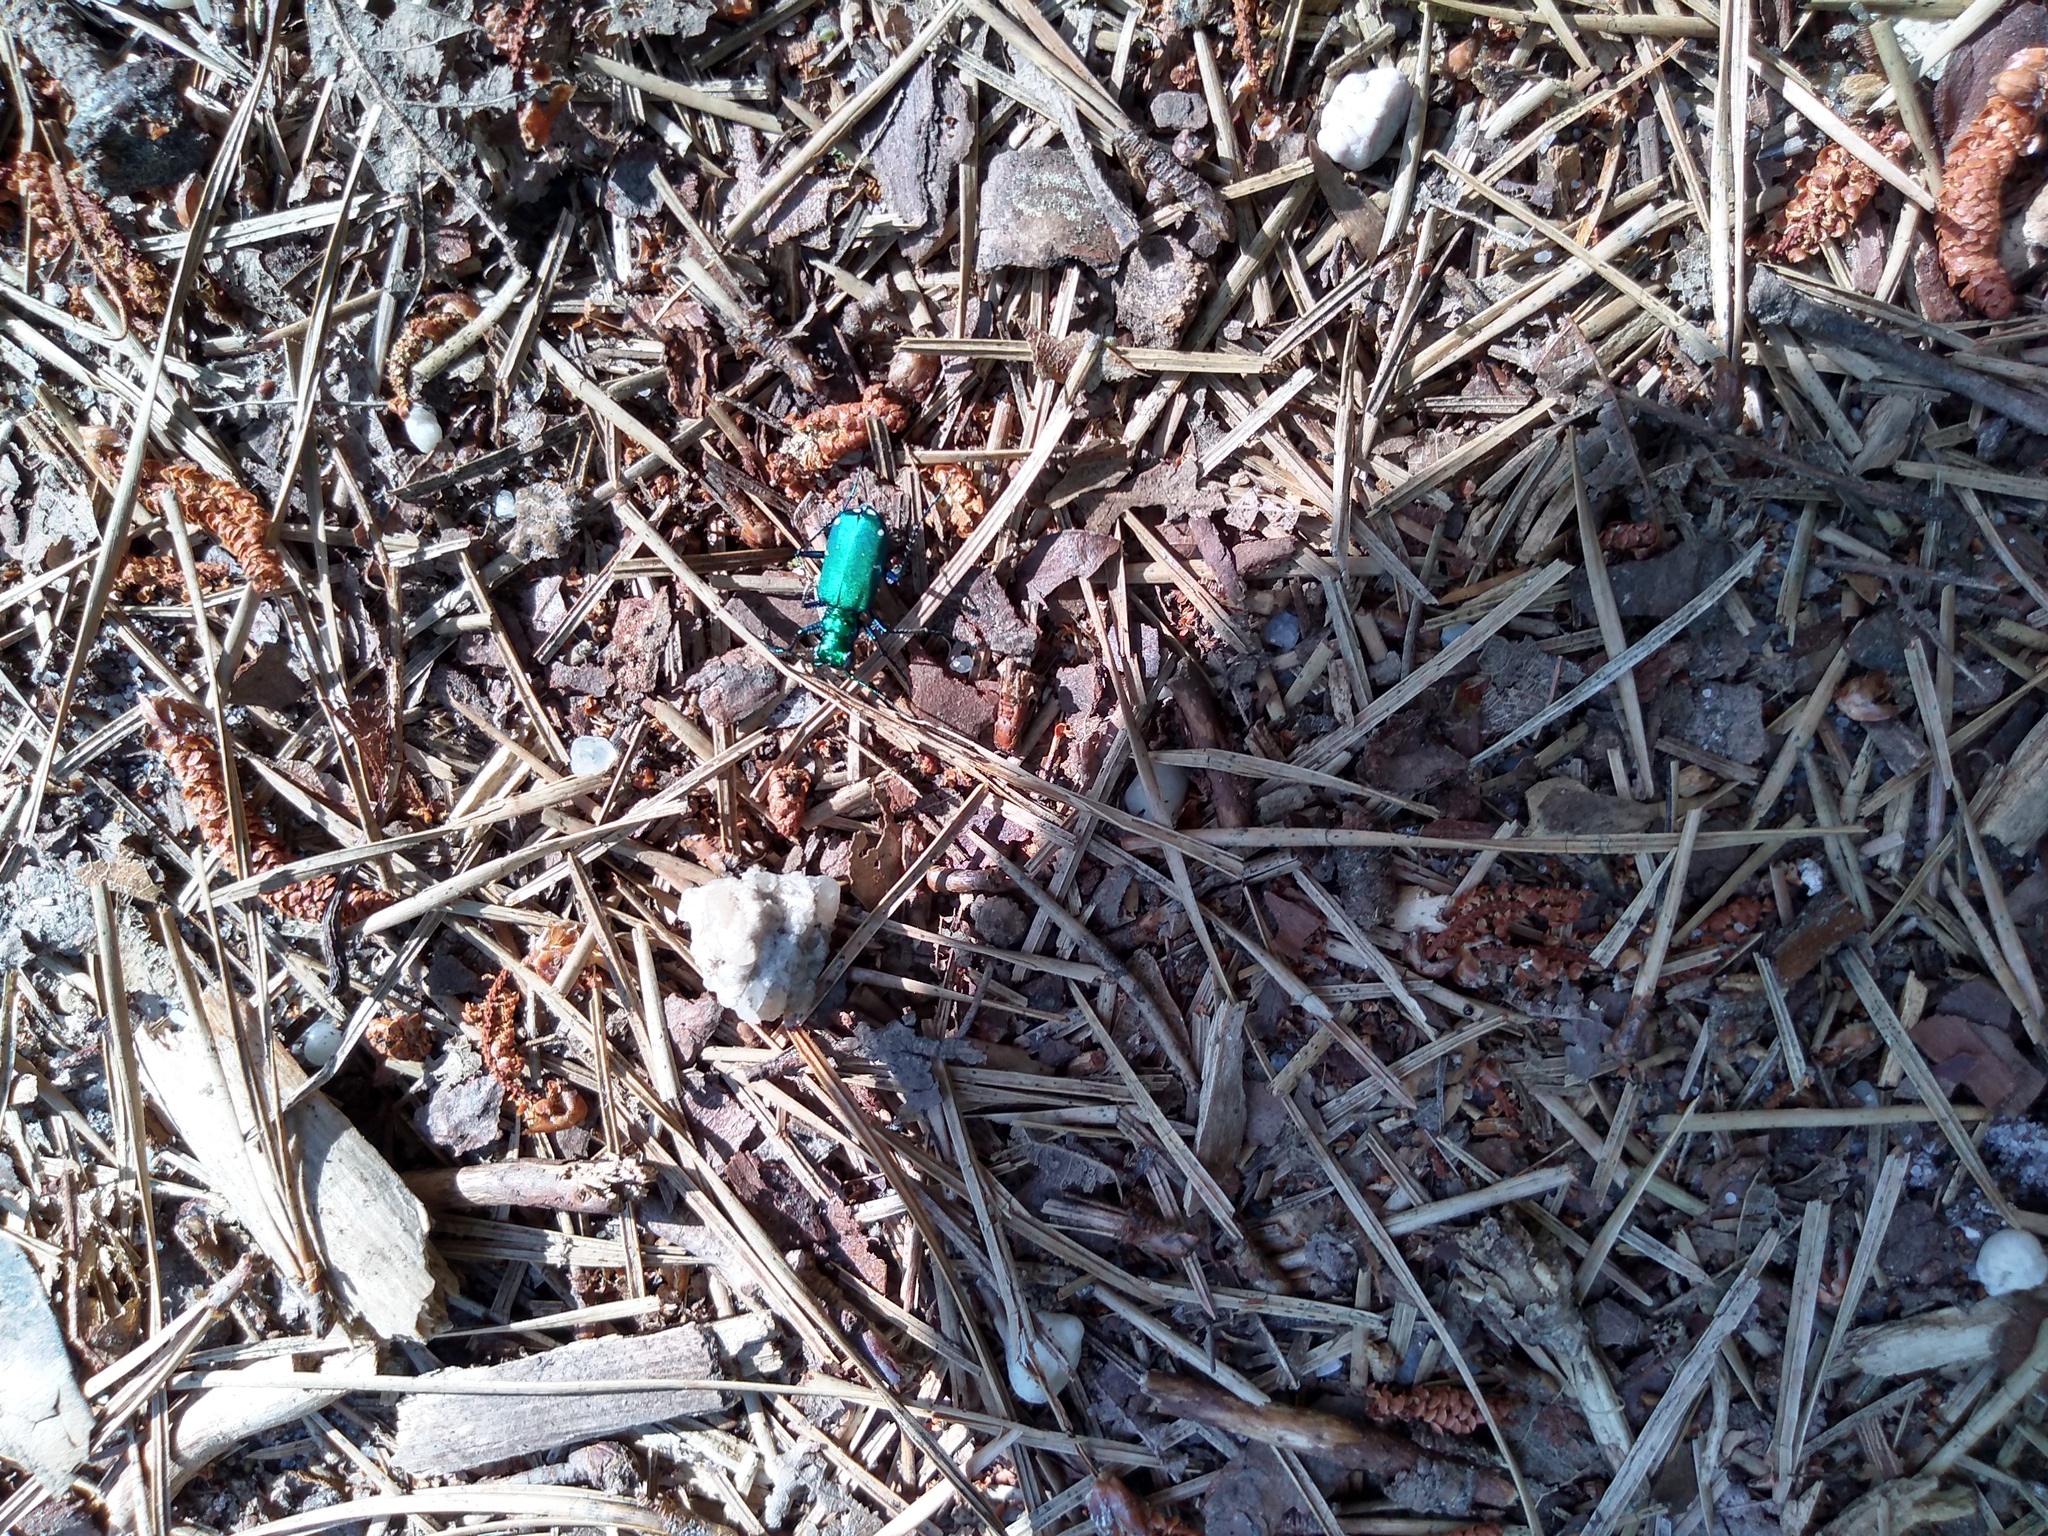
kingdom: Animalia
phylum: Arthropoda
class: Insecta
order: Coleoptera
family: Carabidae
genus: Cicindela
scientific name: Cicindela sexguttata
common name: Six-spotted tiger beetle
